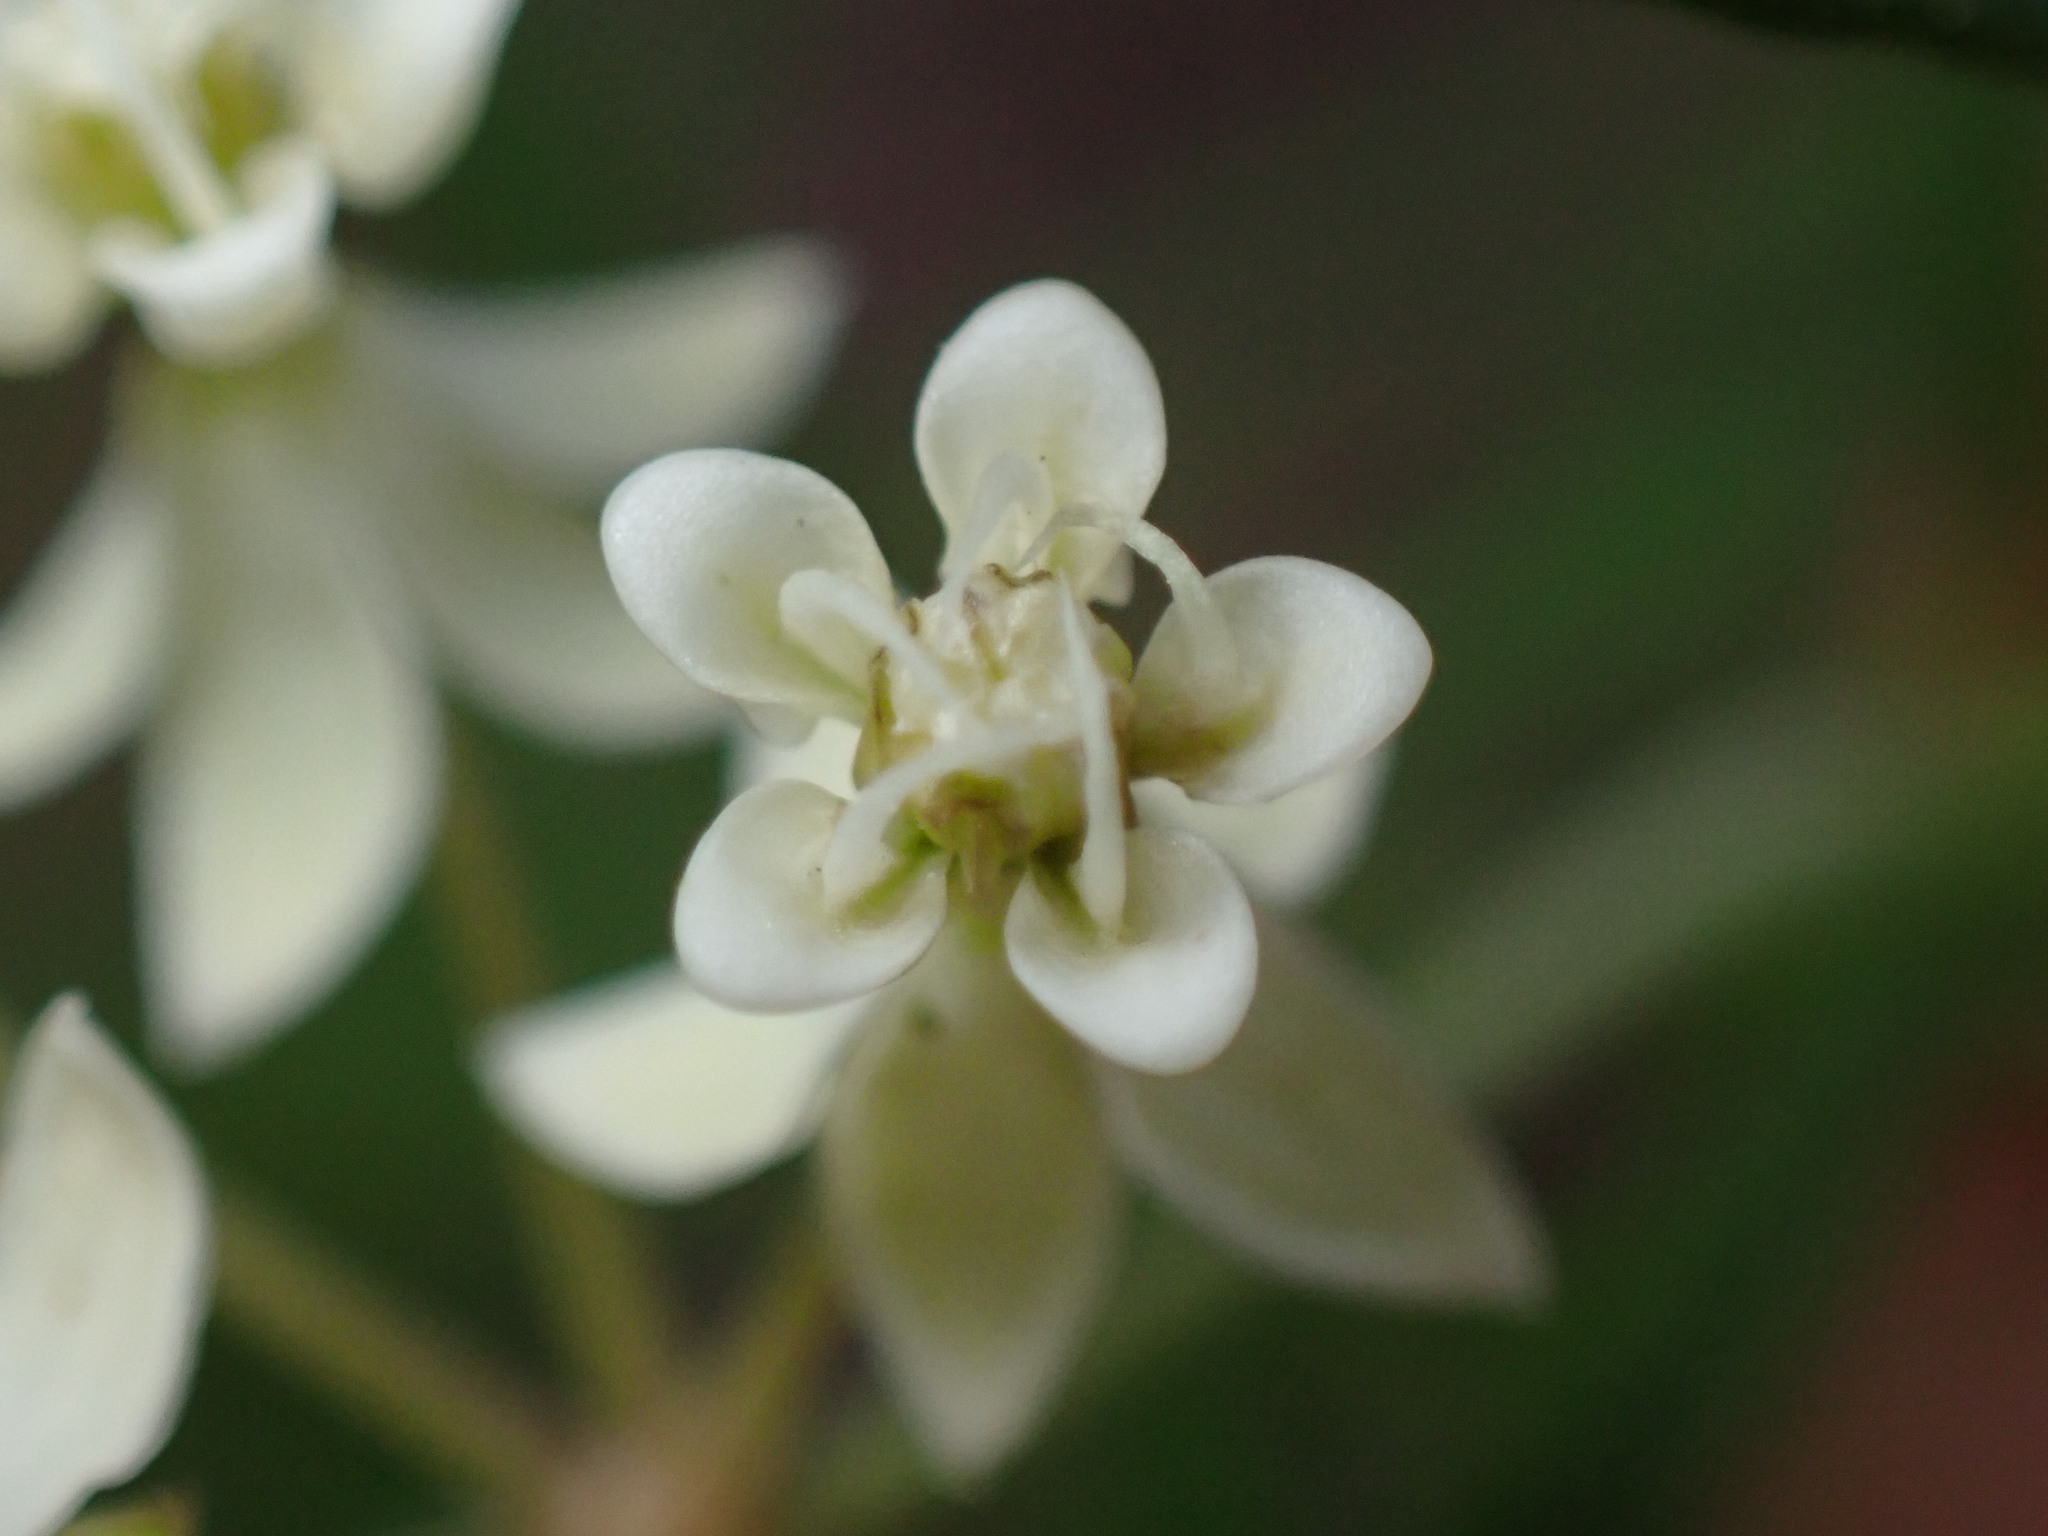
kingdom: Plantae
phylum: Tracheophyta
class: Magnoliopsida
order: Gentianales
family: Apocynaceae
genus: Asclepias
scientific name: Asclepias verticillata
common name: Eastern whorled milkweed
